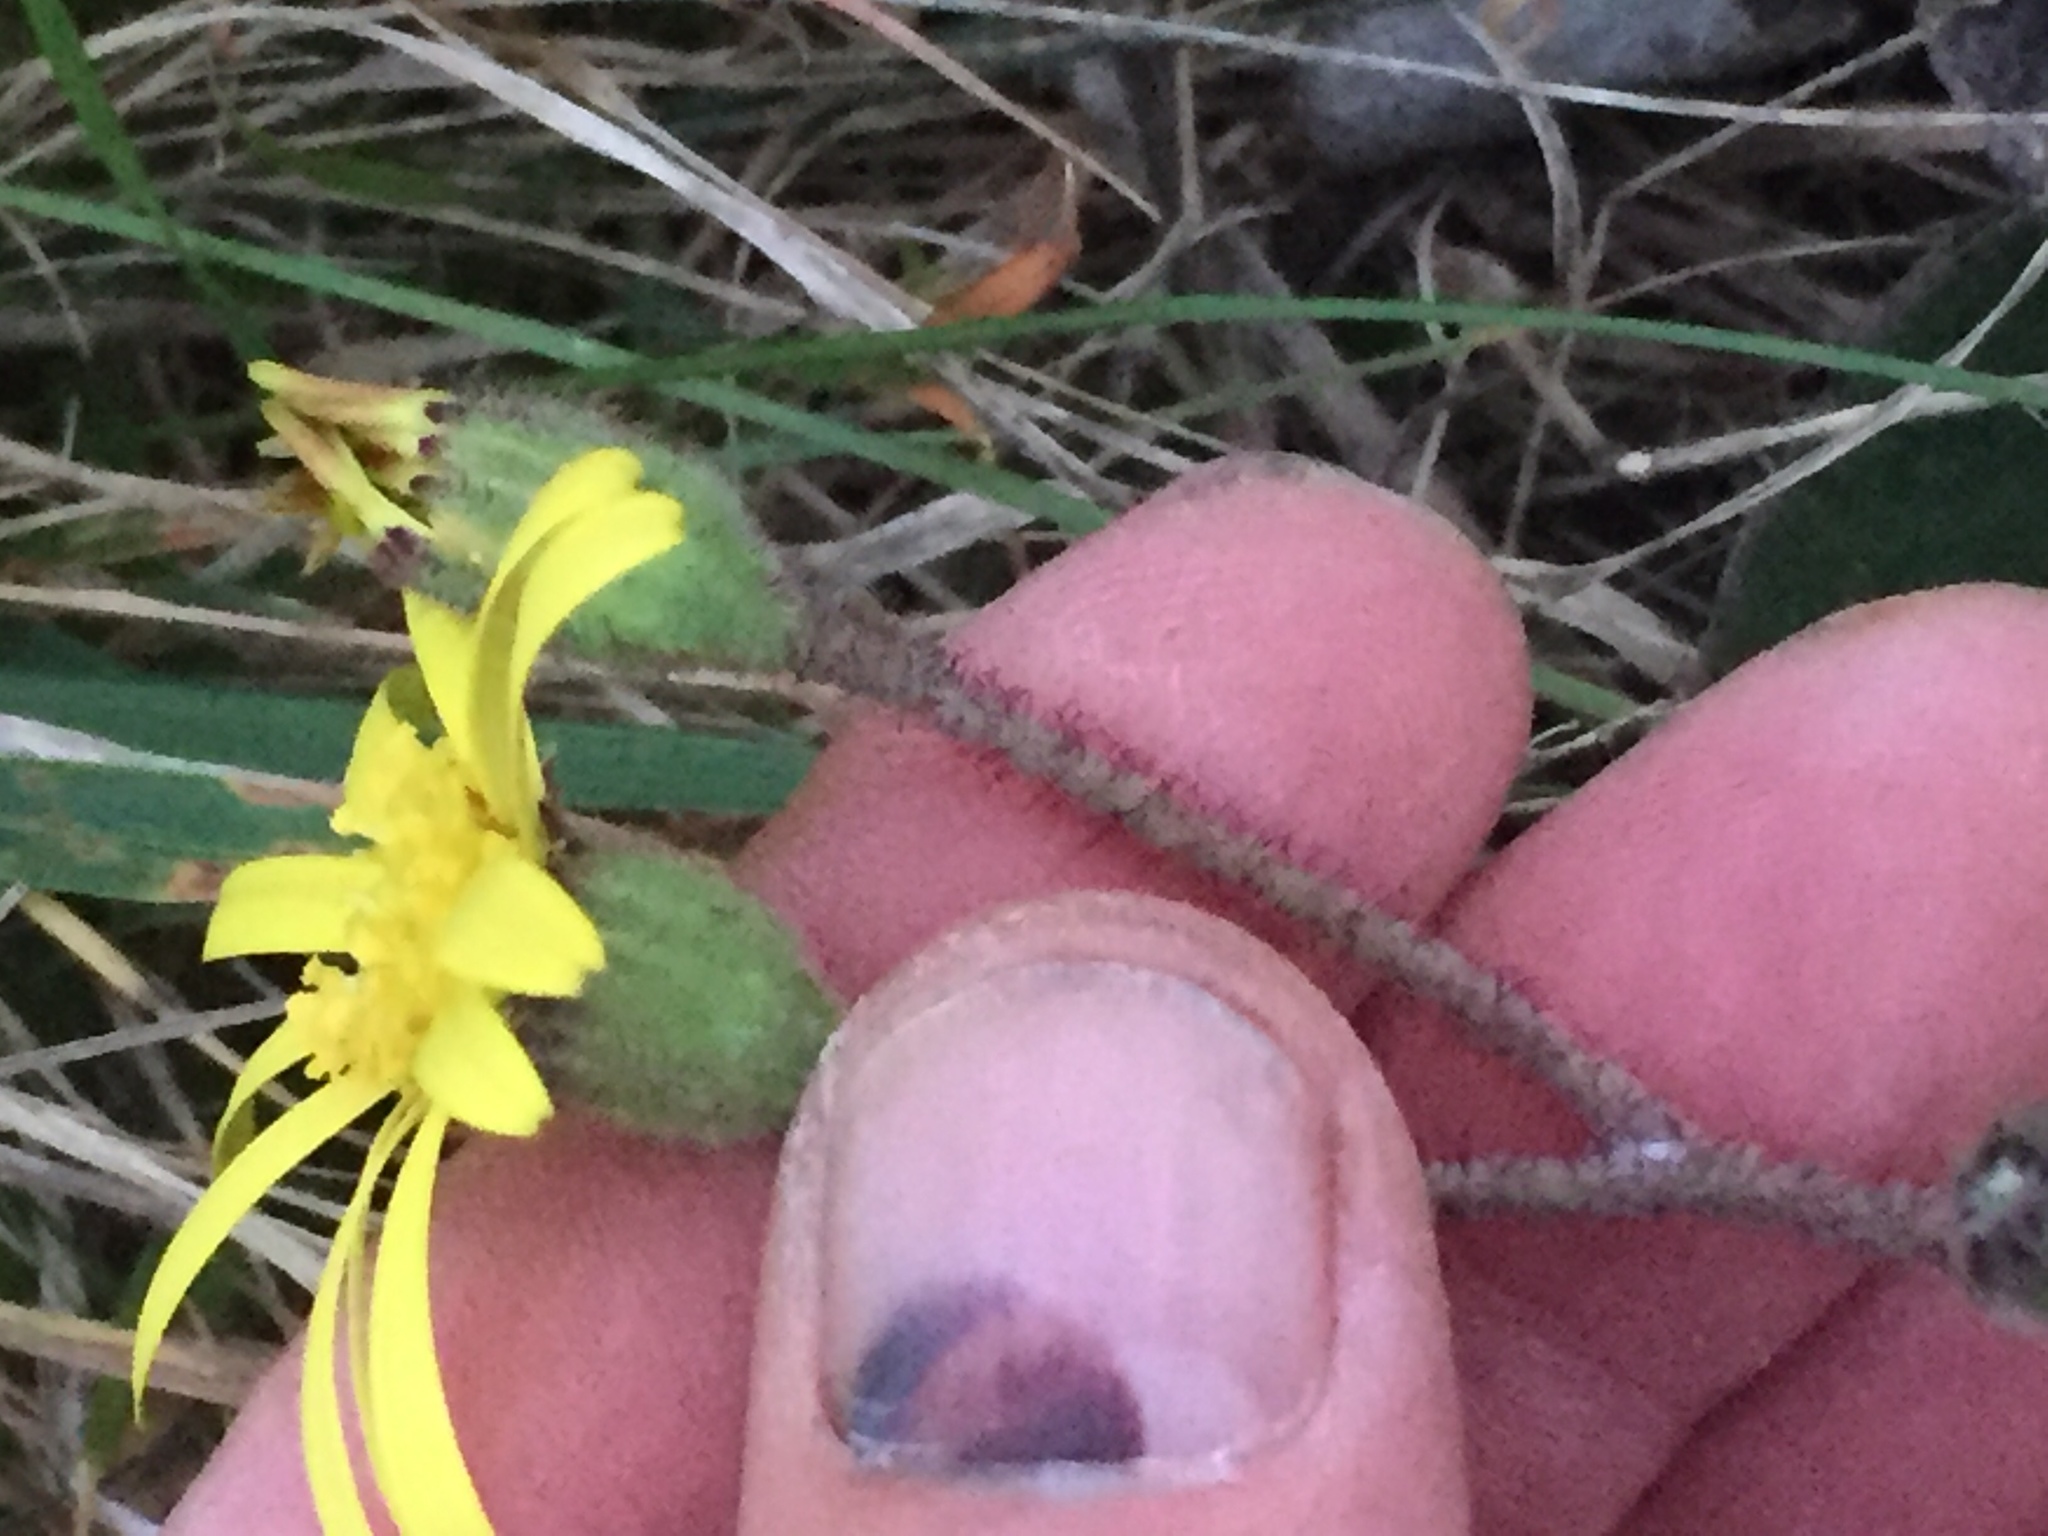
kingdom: Plantae
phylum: Tracheophyta
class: Magnoliopsida
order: Asterales
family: Asteraceae
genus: Brachyglottis
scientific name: Brachyglottis lagopus
